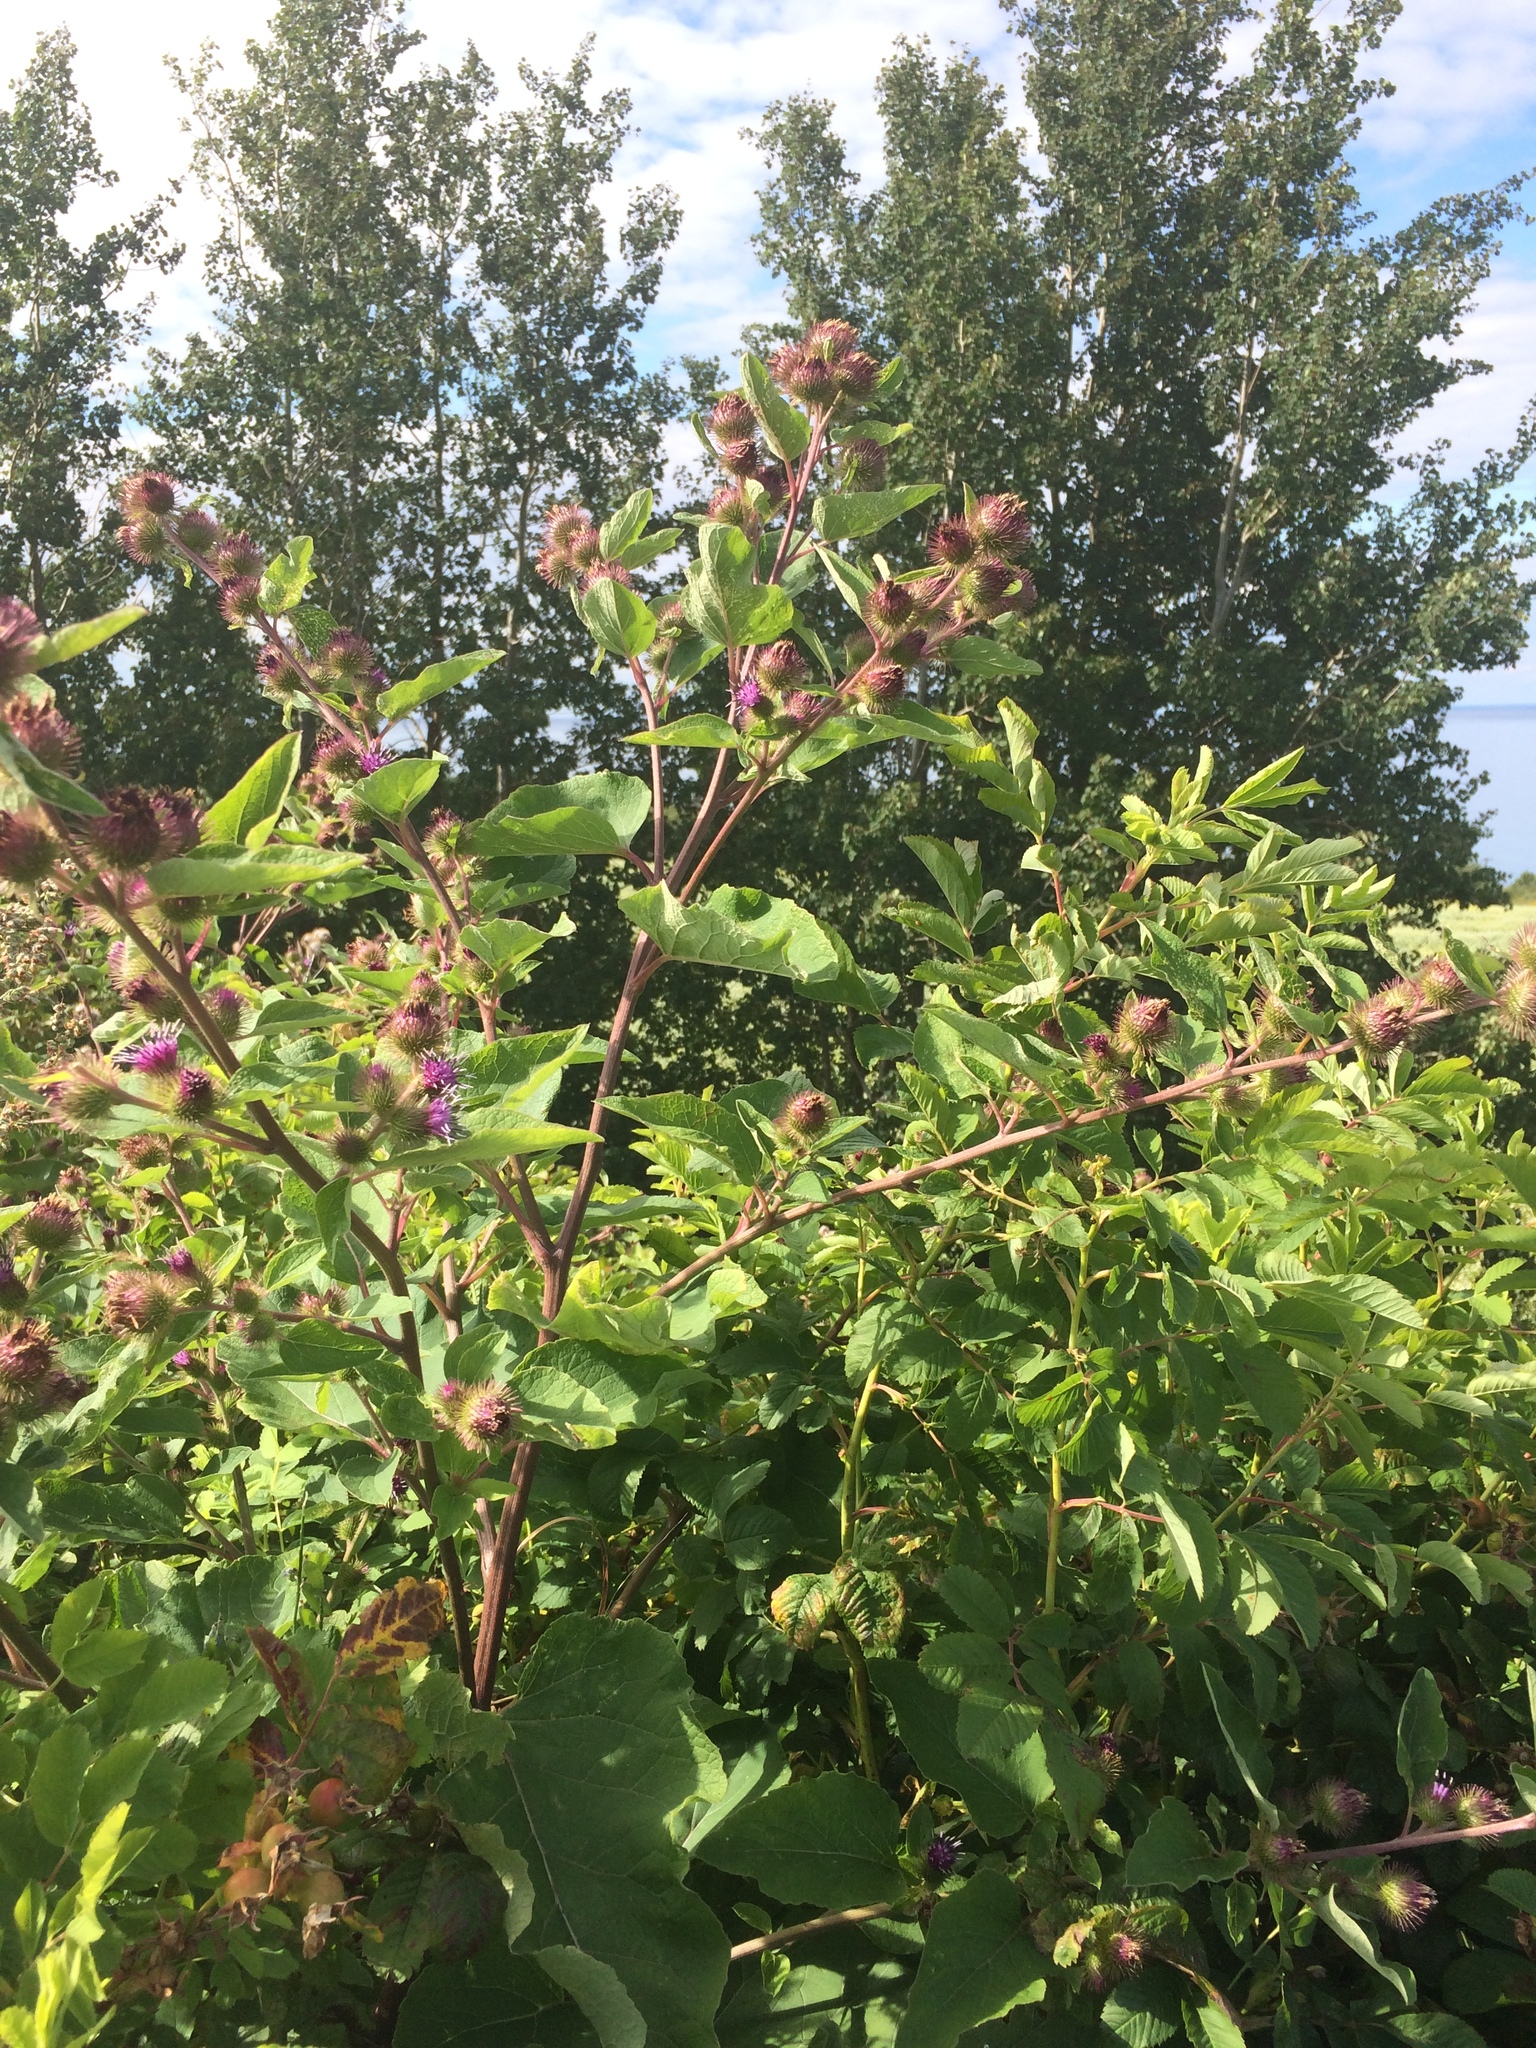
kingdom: Plantae
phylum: Tracheophyta
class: Magnoliopsida
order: Asterales
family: Asteraceae
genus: Arctium
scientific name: Arctium minus
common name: Lesser burdock
